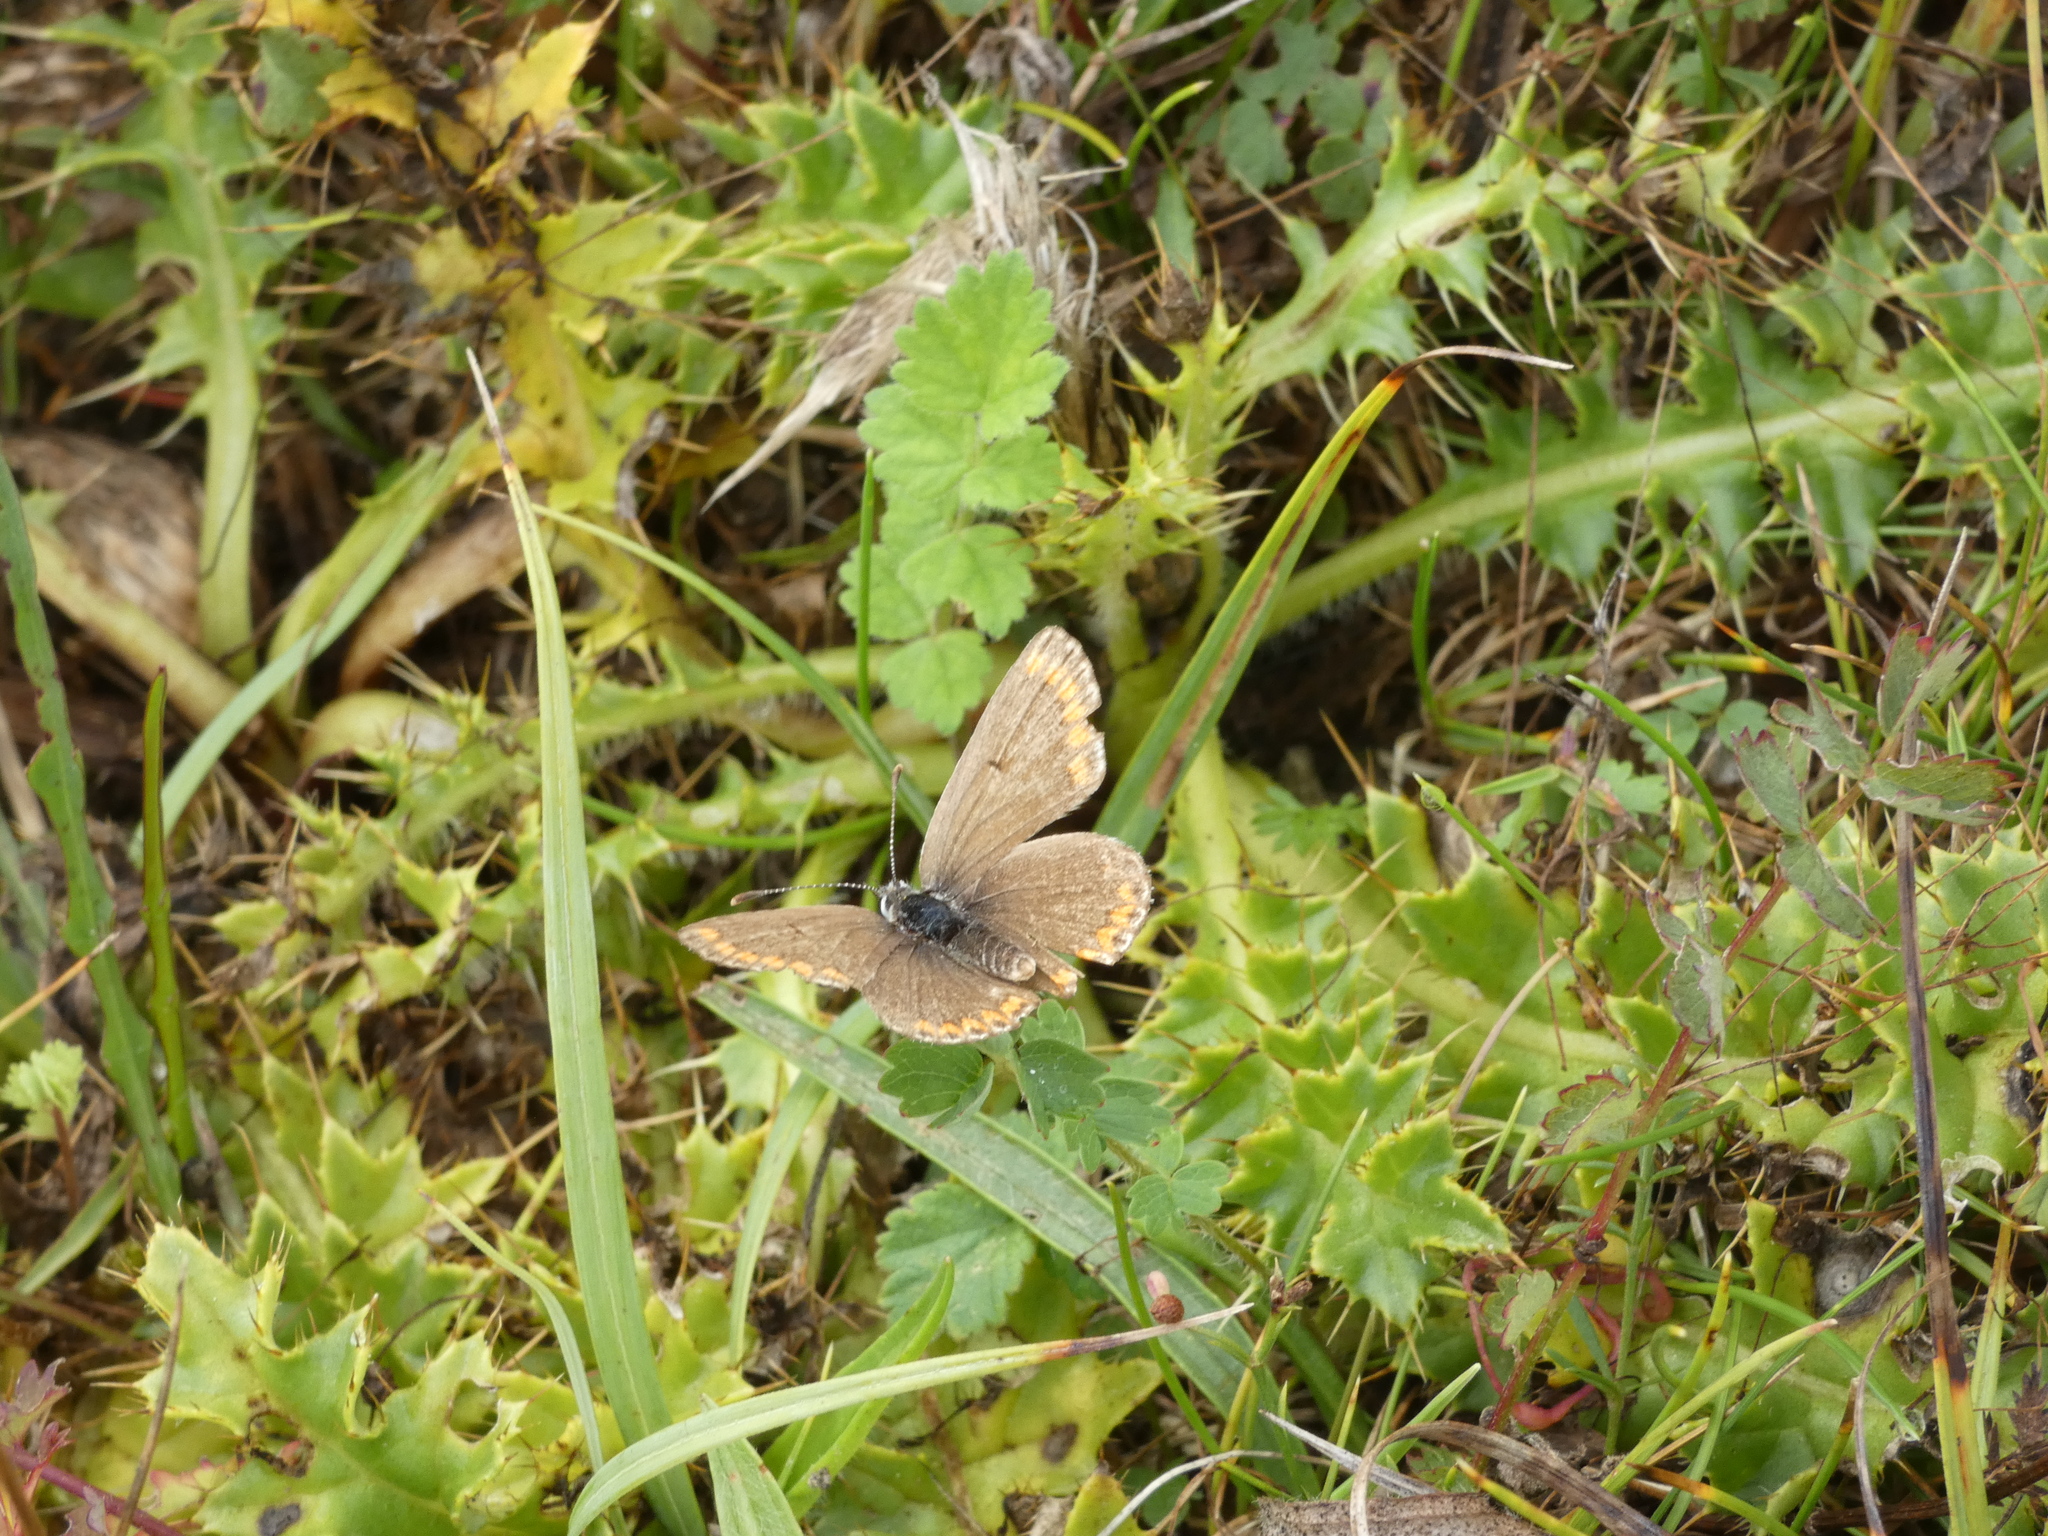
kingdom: Animalia
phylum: Arthropoda
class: Insecta
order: Lepidoptera
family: Lycaenidae
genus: Aricia
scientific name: Aricia agestis
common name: Brown argus
